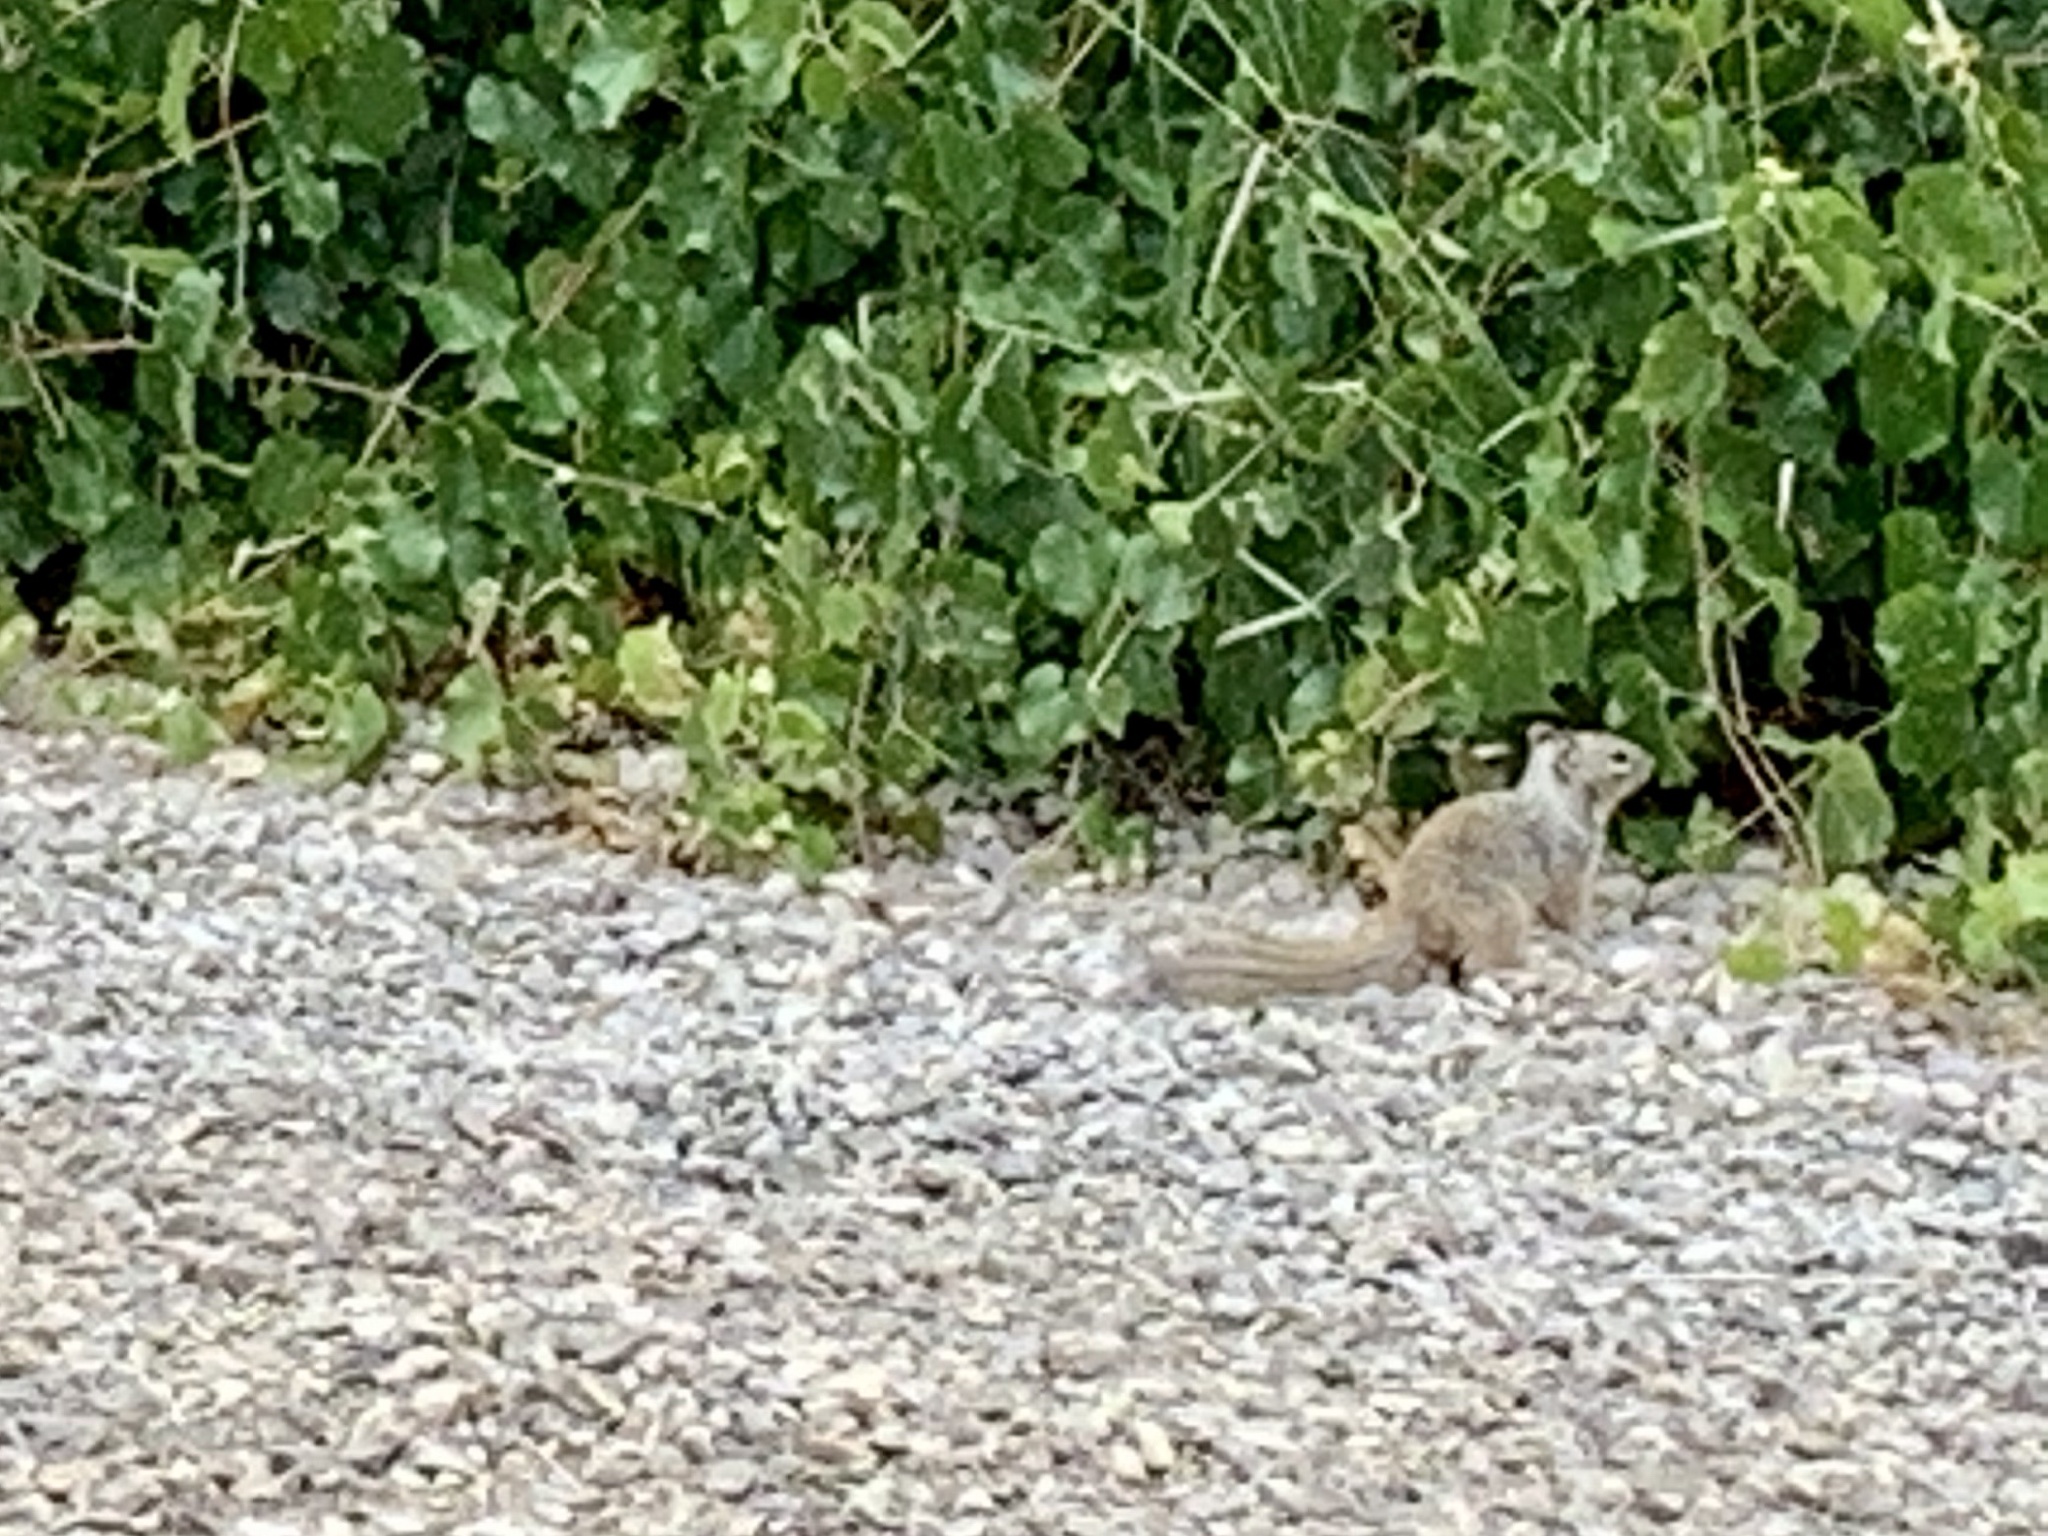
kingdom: Animalia
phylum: Chordata
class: Mammalia
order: Rodentia
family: Sciuridae
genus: Otospermophilus
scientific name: Otospermophilus variegatus
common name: Rock squirrel
